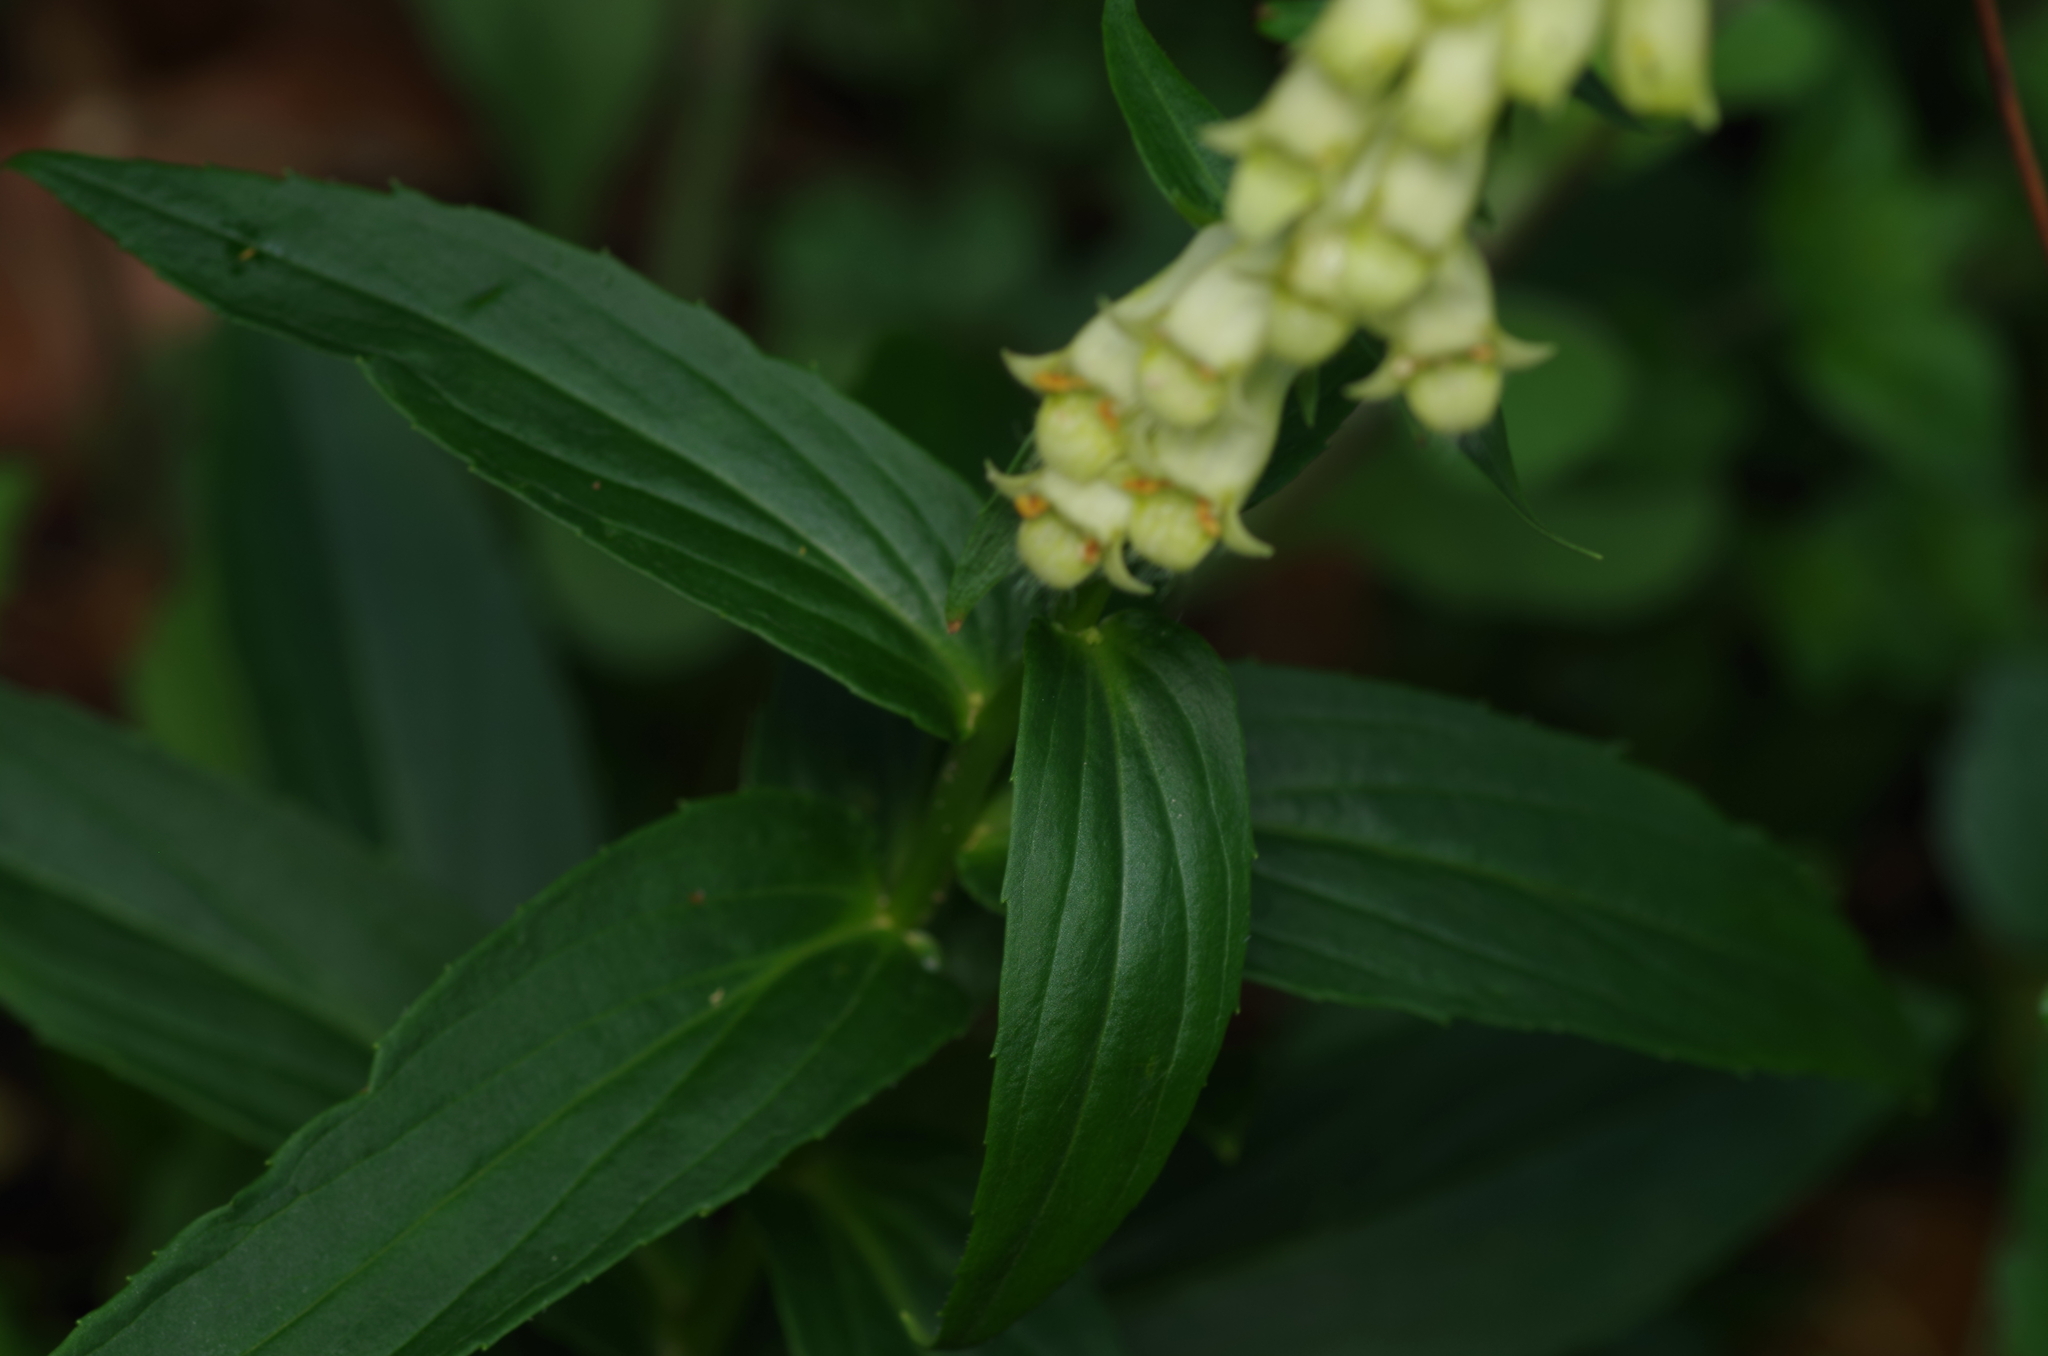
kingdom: Plantae
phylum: Tracheophyta
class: Magnoliopsida
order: Lamiales
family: Plantaginaceae
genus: Digitalis
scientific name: Digitalis lutea
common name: Straw foxglove
